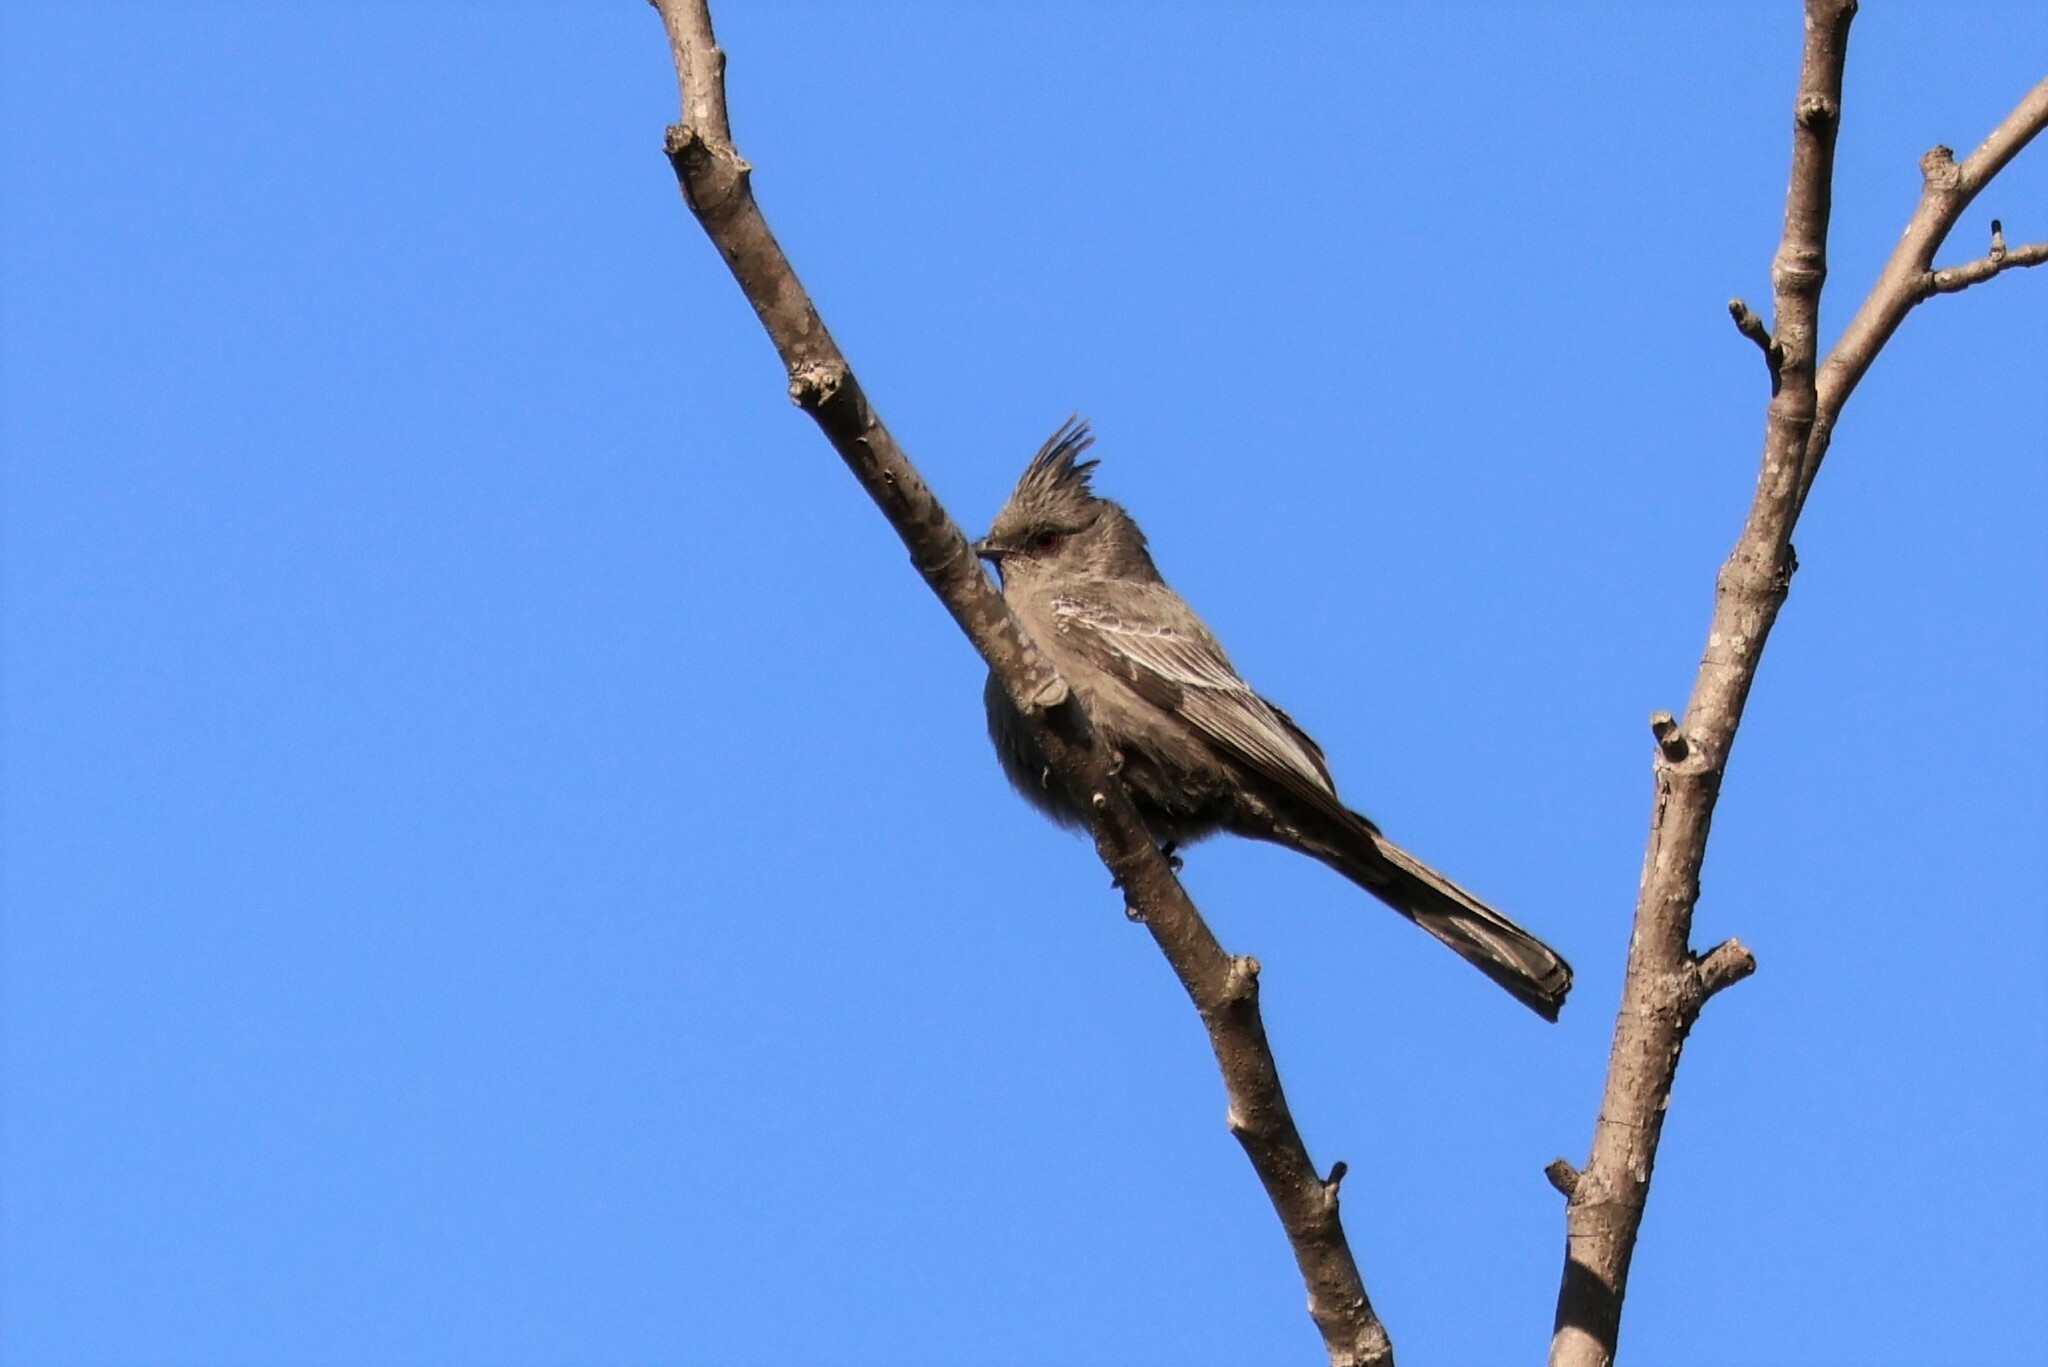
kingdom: Animalia
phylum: Chordata
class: Aves
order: Passeriformes
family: Ptilogonatidae
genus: Phainopepla
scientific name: Phainopepla nitens
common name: Phainopepla
